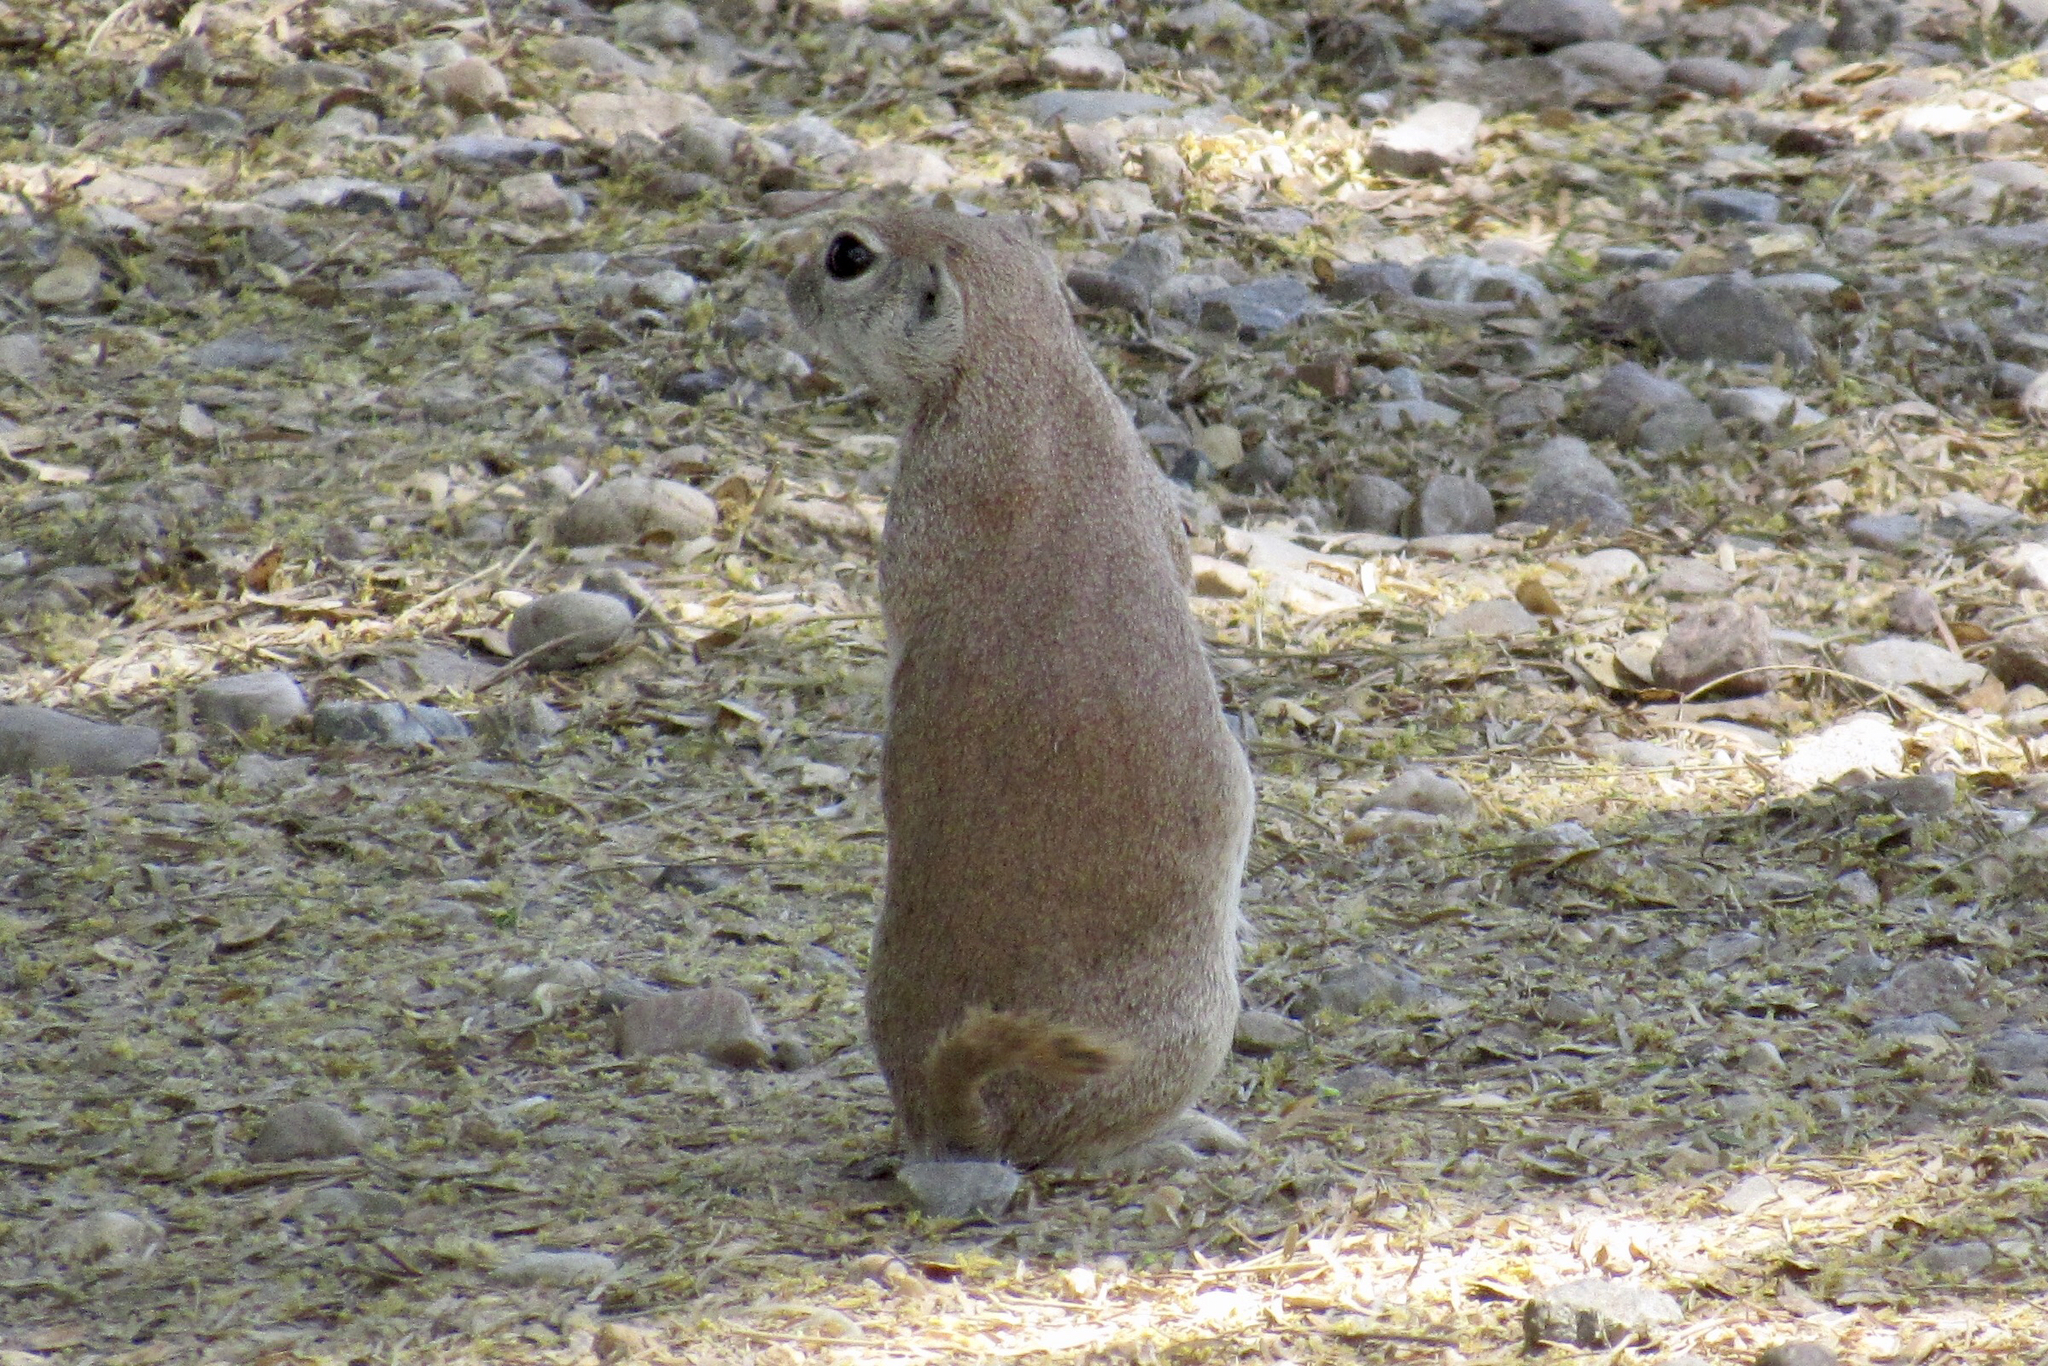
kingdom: Animalia
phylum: Chordata
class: Mammalia
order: Rodentia
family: Sciuridae
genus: Xerospermophilus
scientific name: Xerospermophilus tereticaudus
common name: Round-tailed ground squirrel
